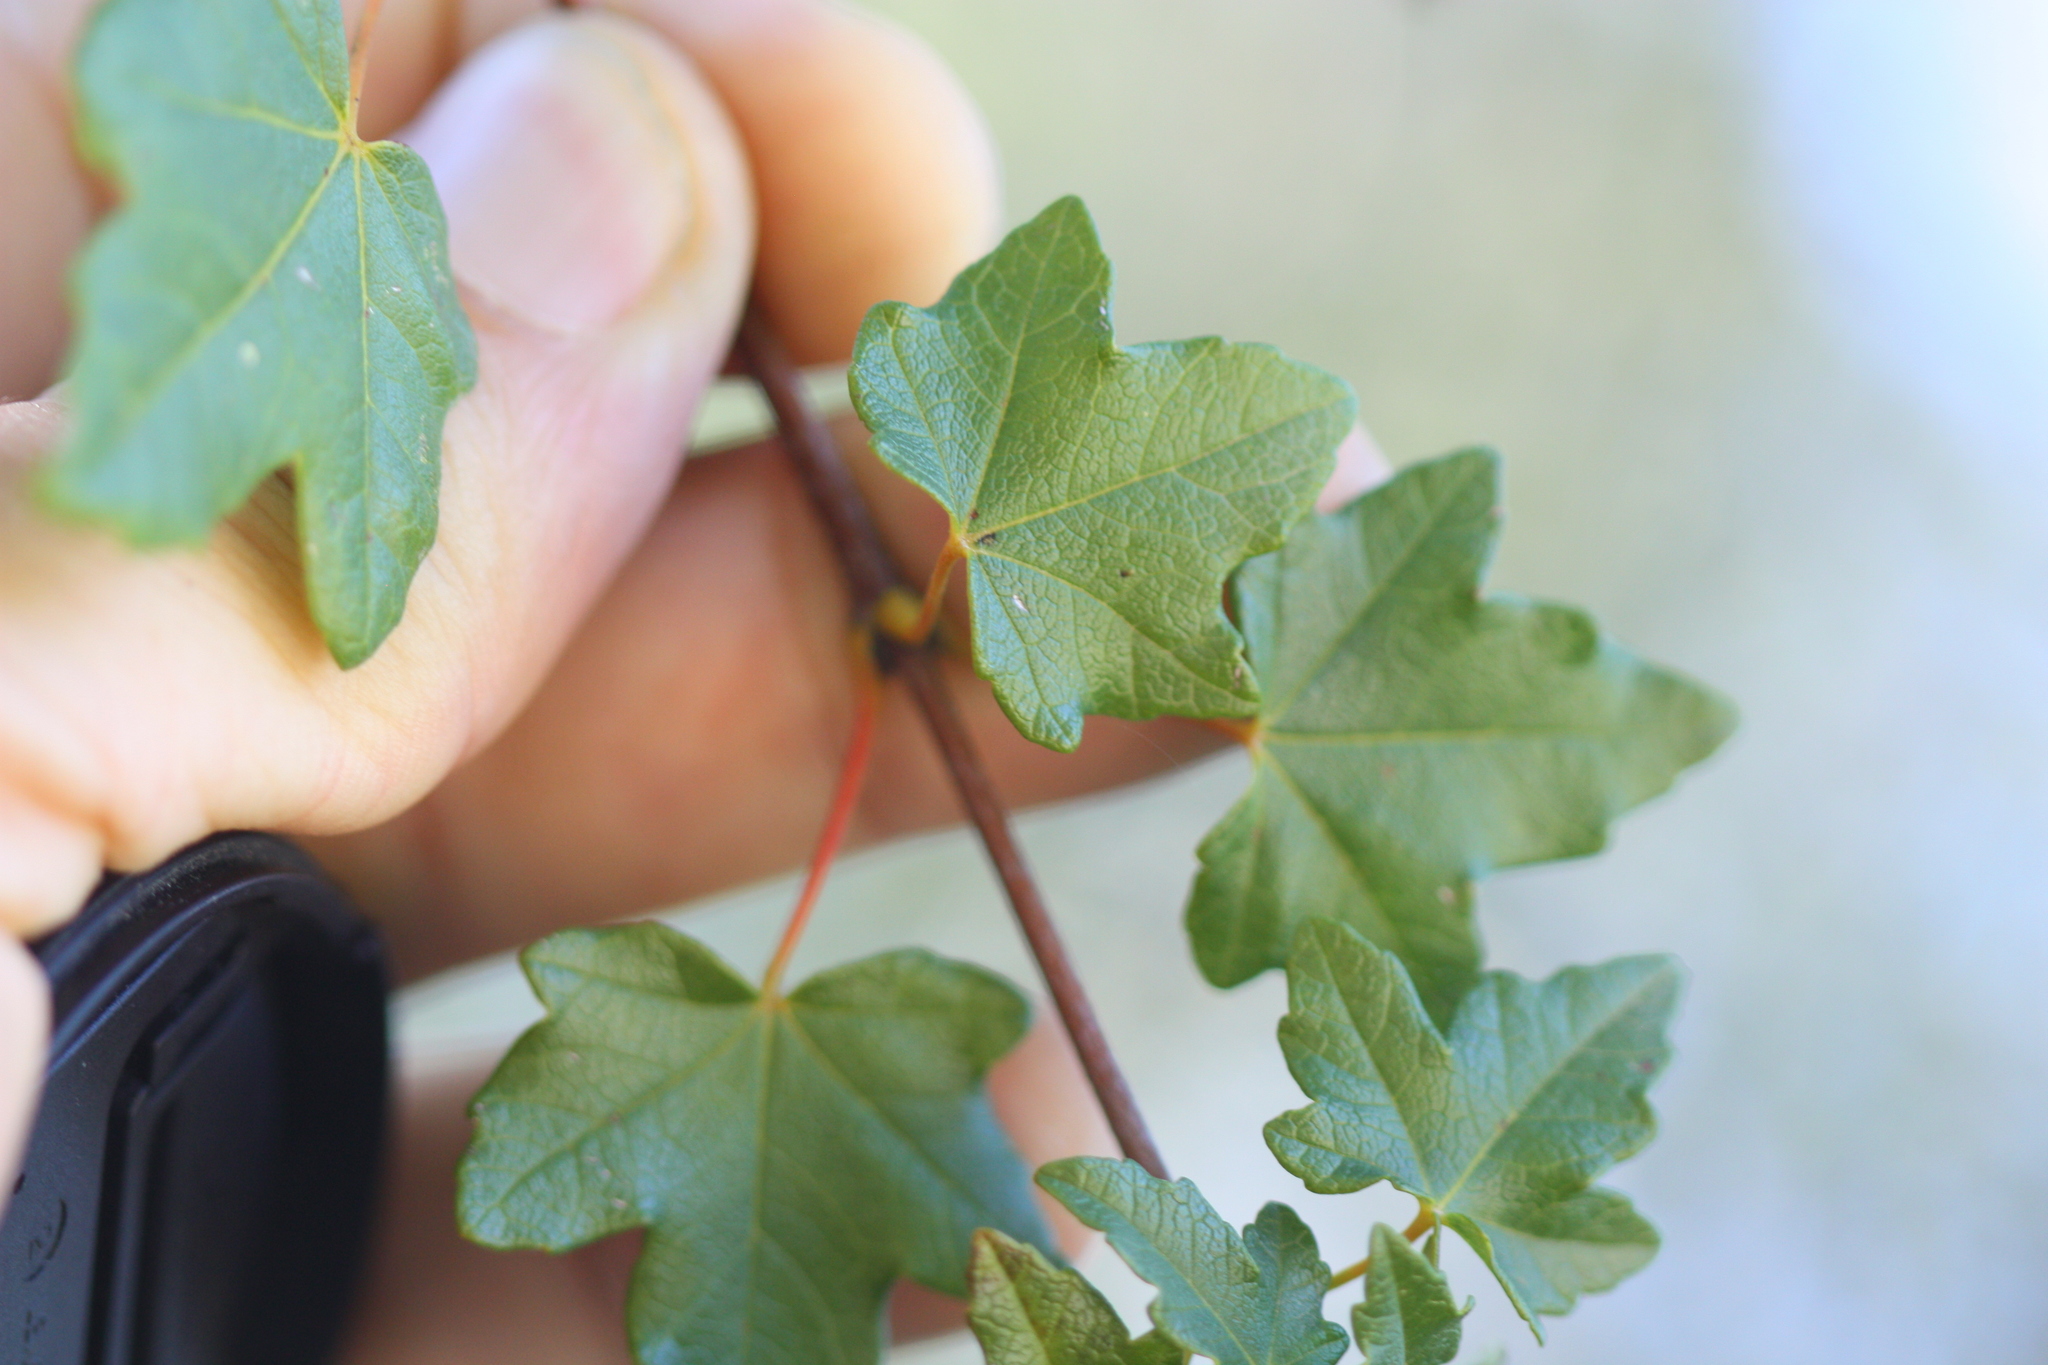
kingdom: Plantae
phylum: Tracheophyta
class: Magnoliopsida
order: Sapindales
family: Sapindaceae
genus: Acer
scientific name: Acer campestre
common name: Field maple
